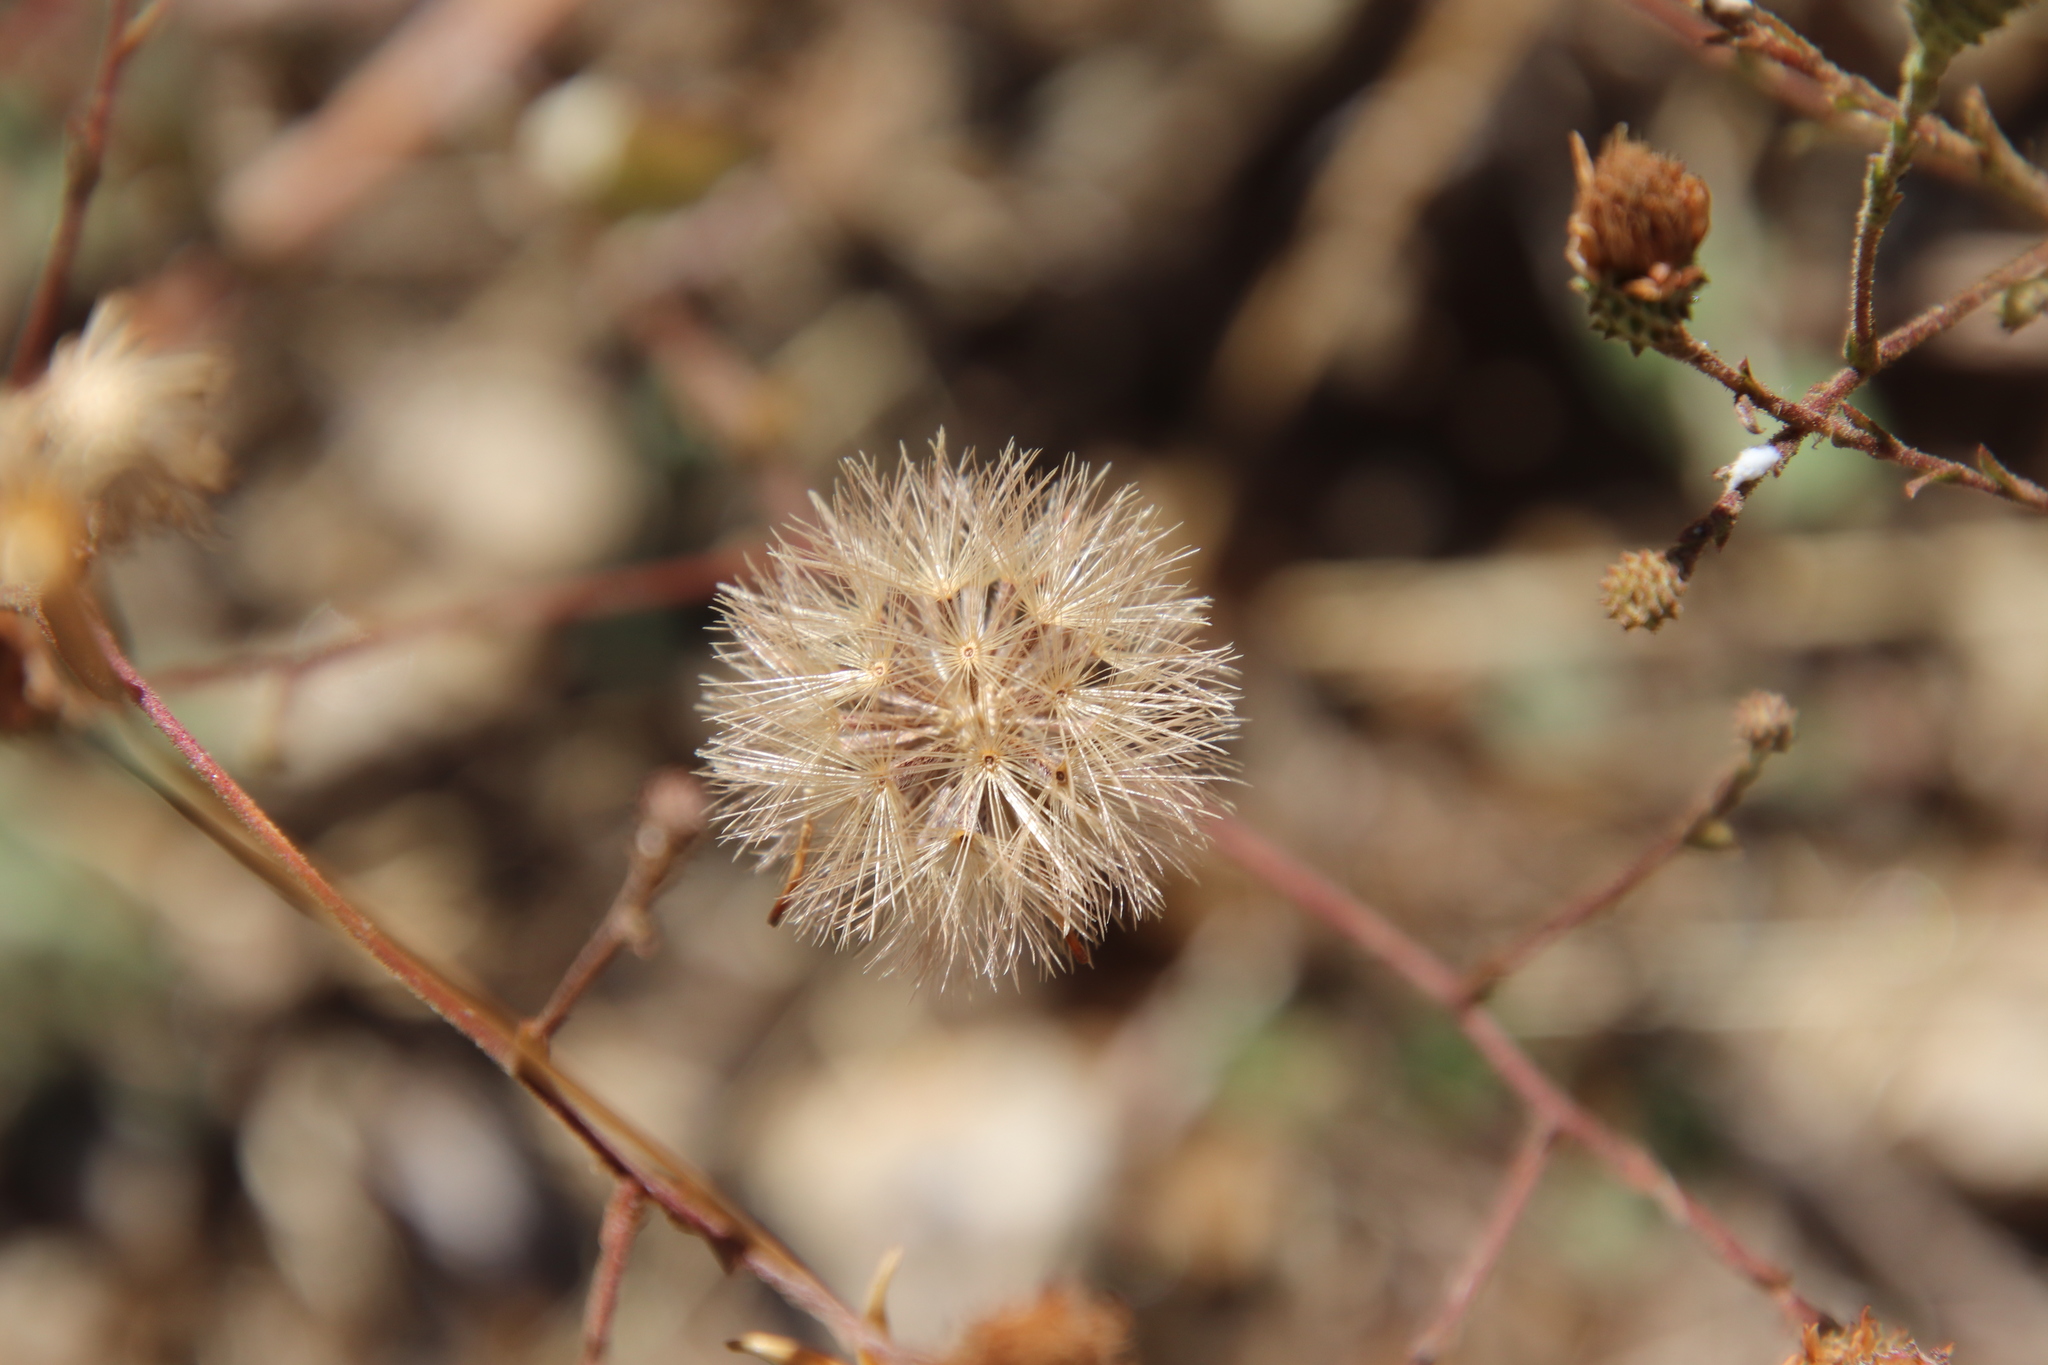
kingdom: Plantae
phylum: Tracheophyta
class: Magnoliopsida
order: Asterales
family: Asteraceae
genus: Corethrogyne
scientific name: Corethrogyne filaginifolia
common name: Sand-aster
